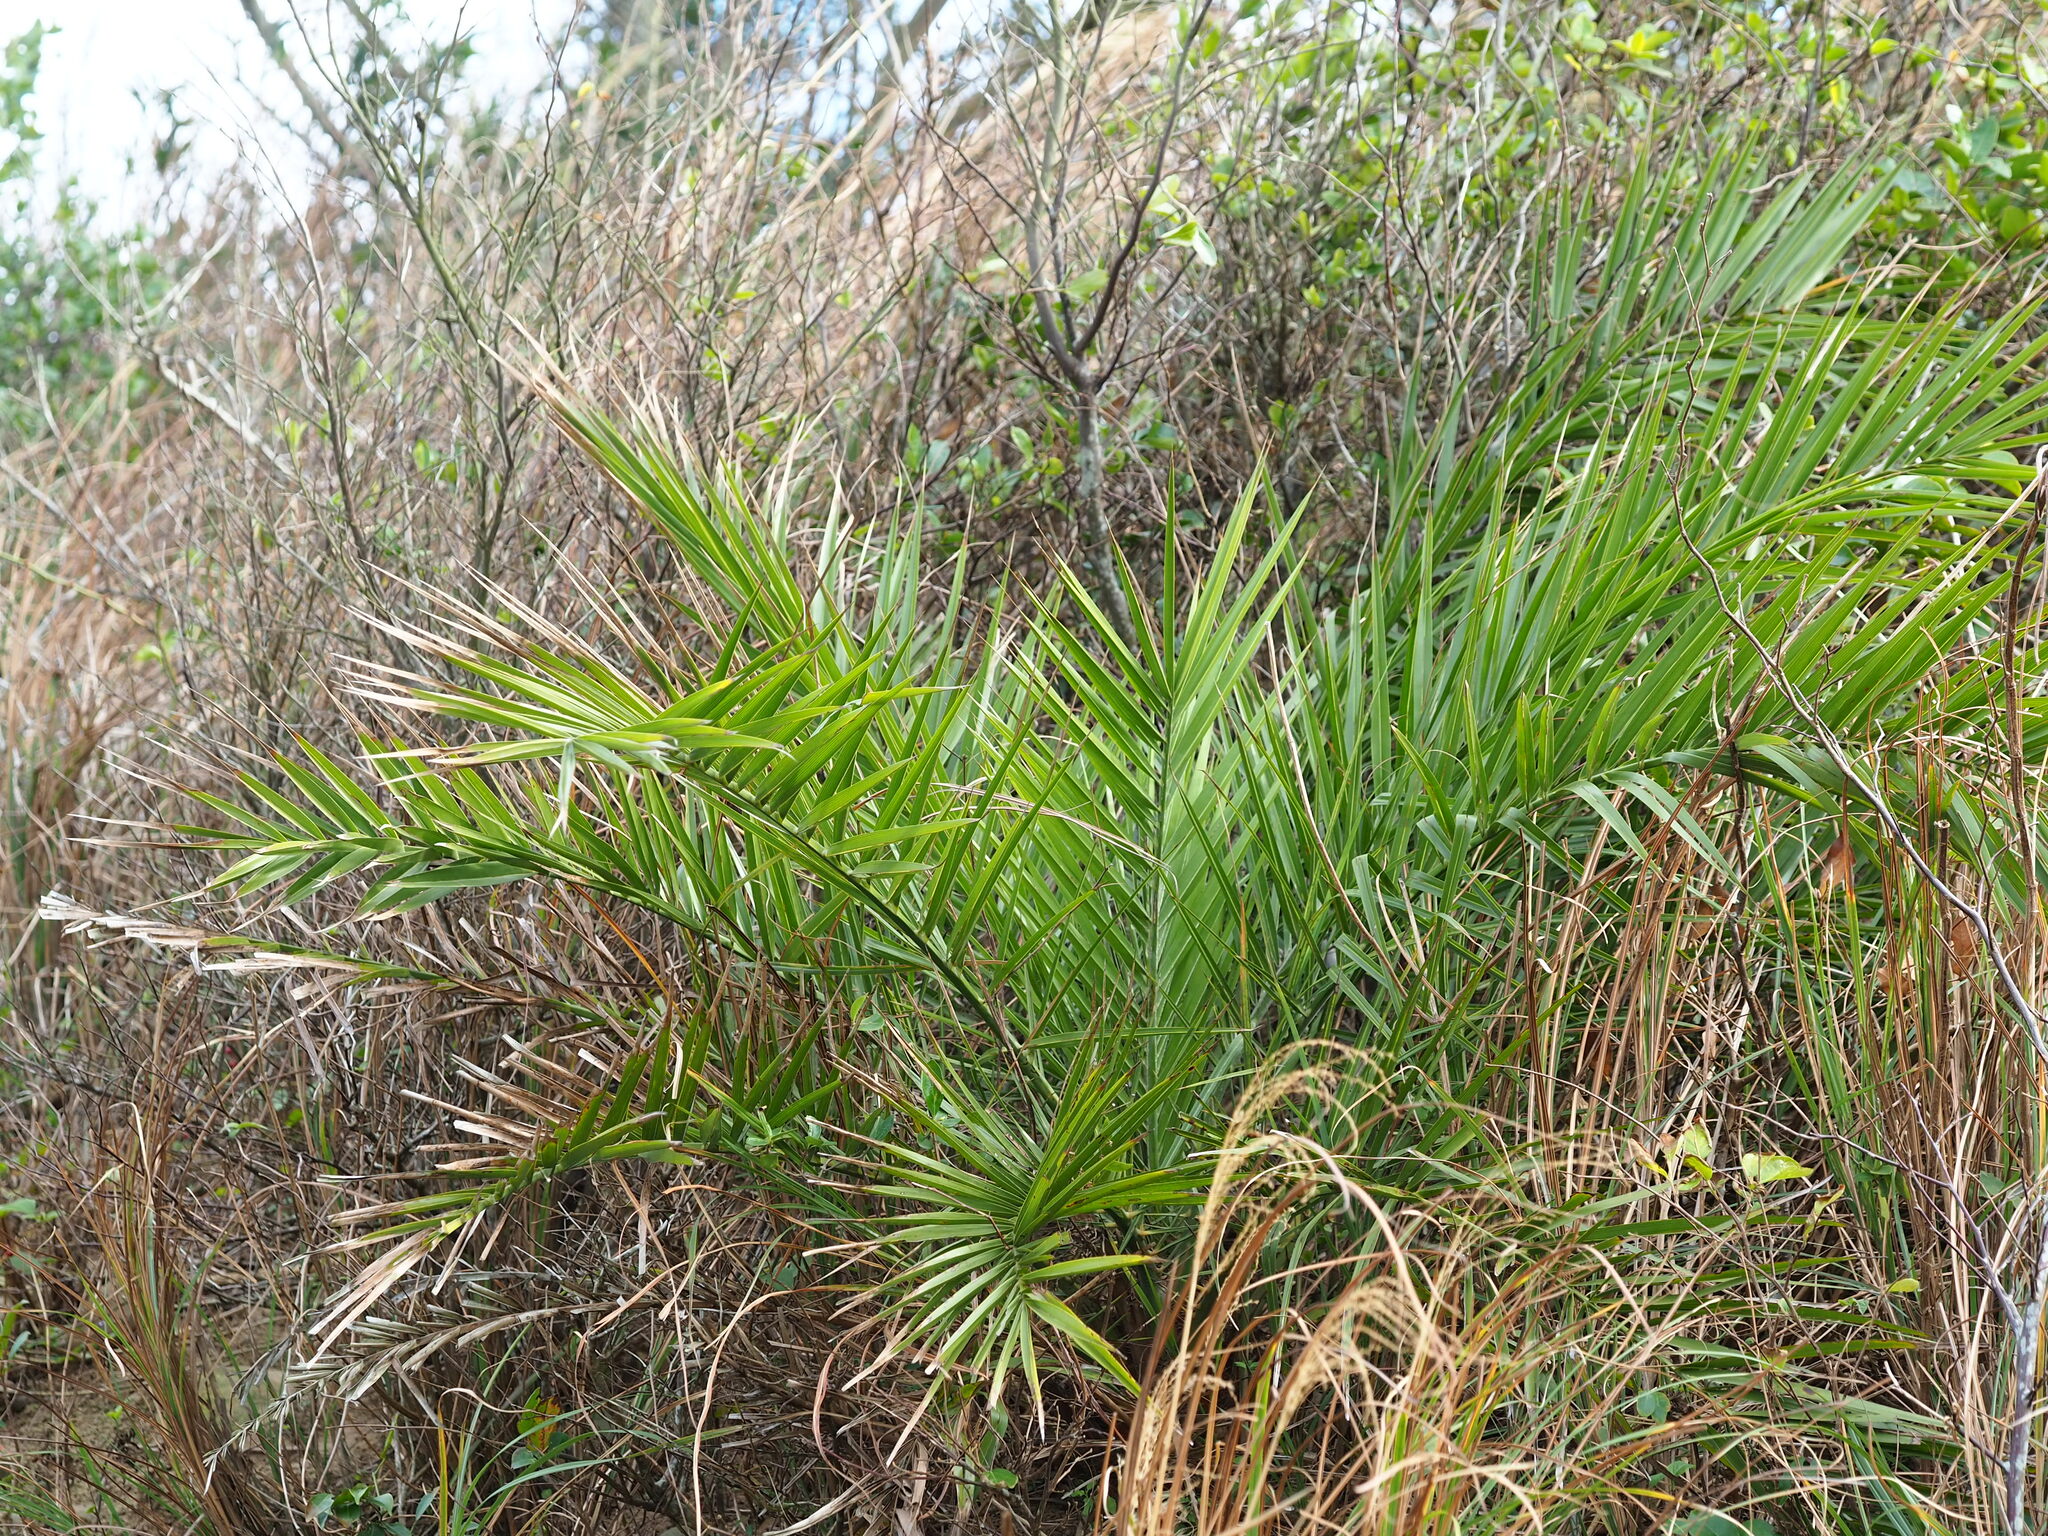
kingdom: Plantae
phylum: Tracheophyta
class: Liliopsida
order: Arecales
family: Arecaceae
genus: Phoenix
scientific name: Phoenix loureiroi
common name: Loureiro's palm
